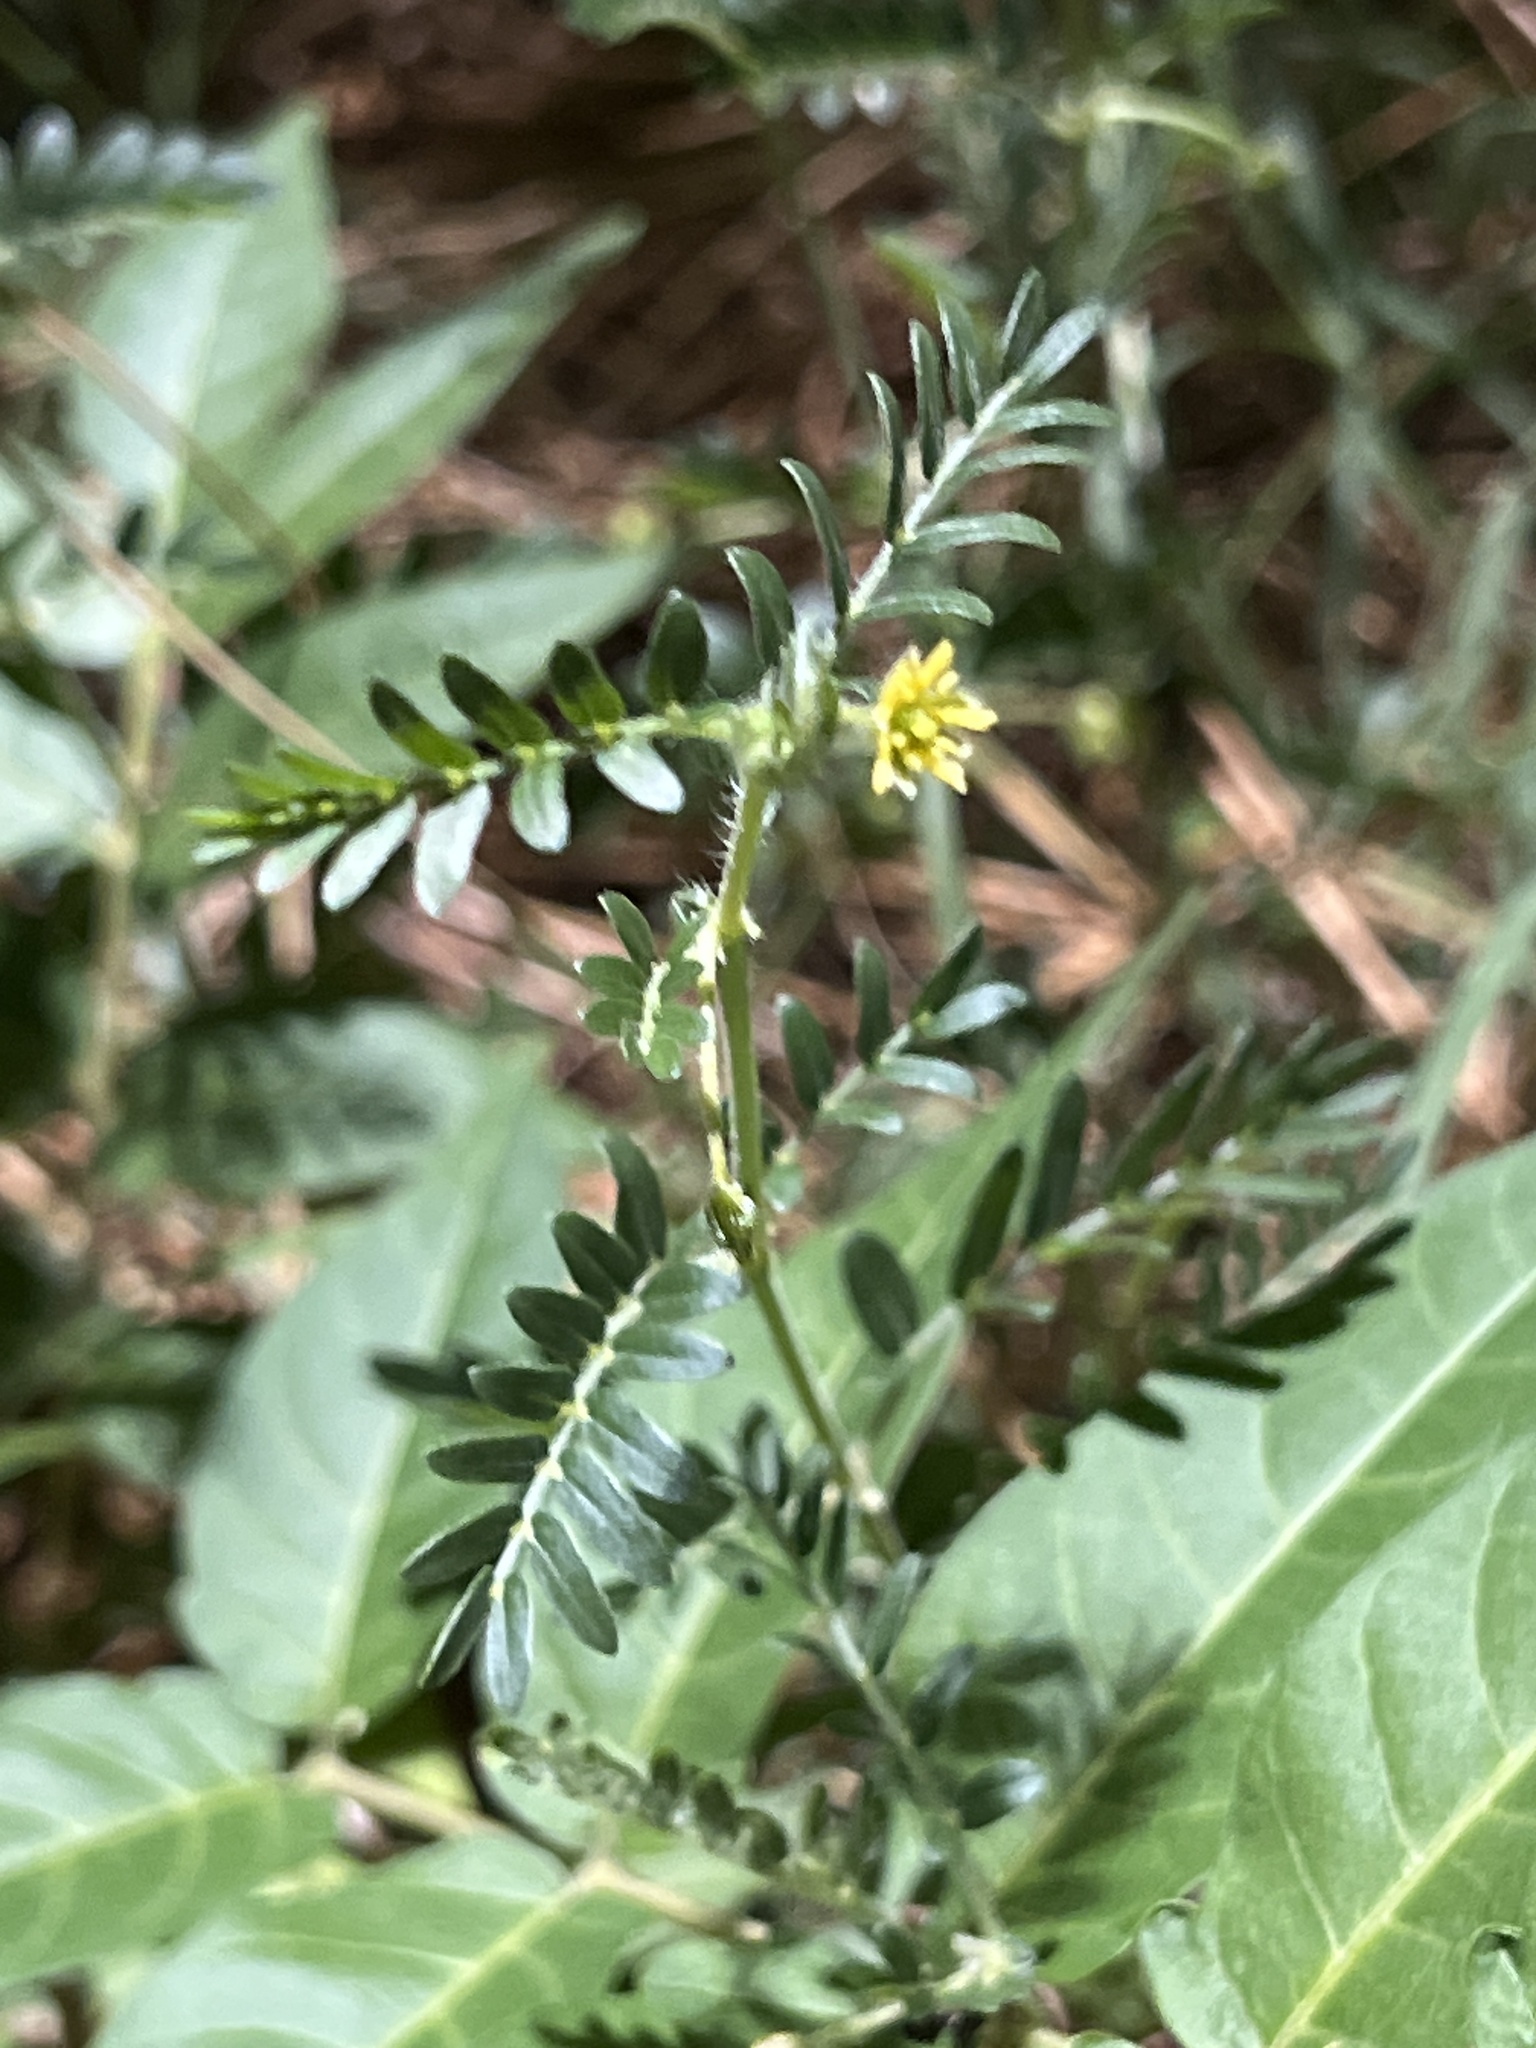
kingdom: Plantae
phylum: Tracheophyta
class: Magnoliopsida
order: Zygophyllales
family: Zygophyllaceae
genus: Tribulus
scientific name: Tribulus terrestris
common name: Puncturevine
